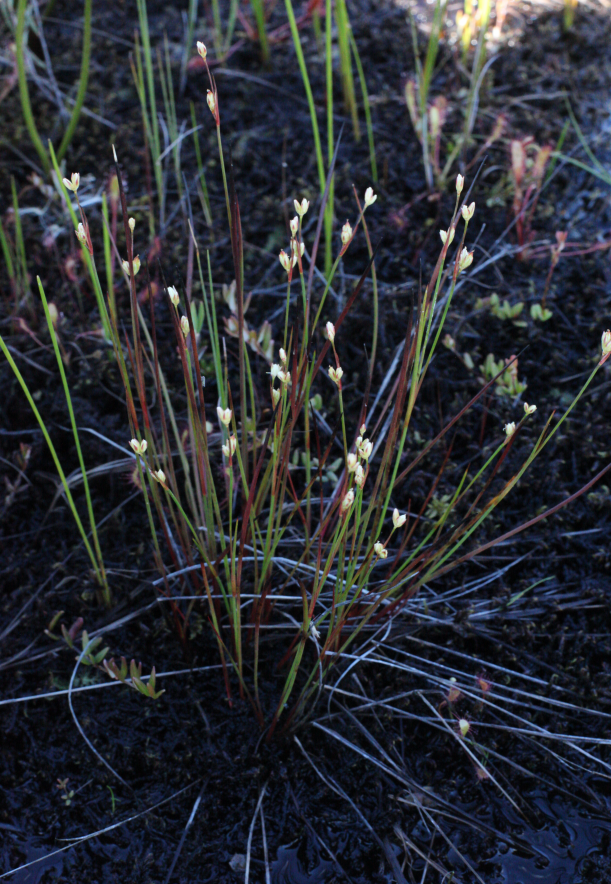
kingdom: Plantae
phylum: Tracheophyta
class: Liliopsida
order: Poales
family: Juncaceae
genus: Juncus
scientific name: Juncus stygius
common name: Bog rush
